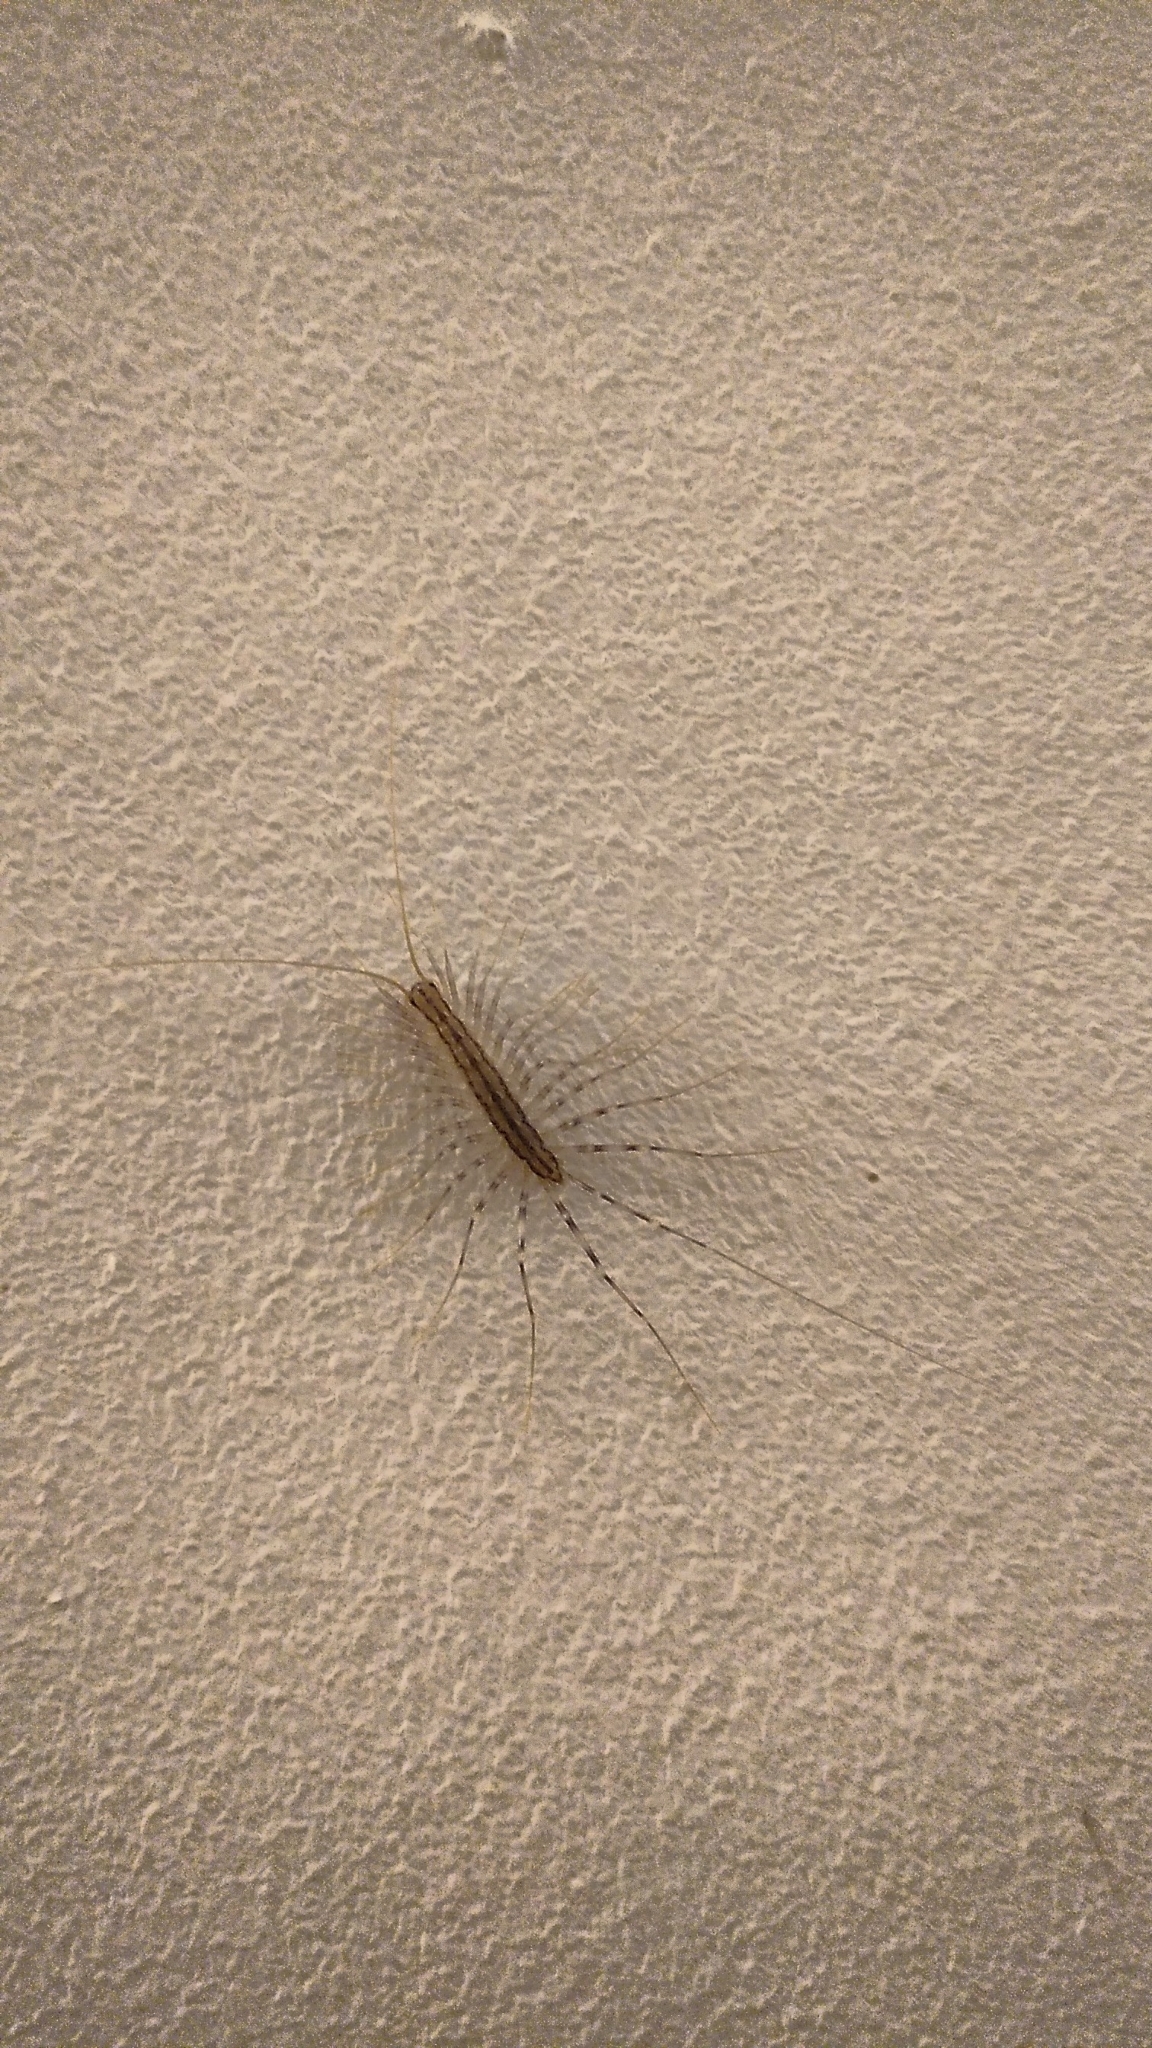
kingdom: Animalia
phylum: Arthropoda
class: Chilopoda
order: Scutigeromorpha
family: Scutigeridae
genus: Scutigera
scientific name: Scutigera coleoptrata
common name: House centipede
